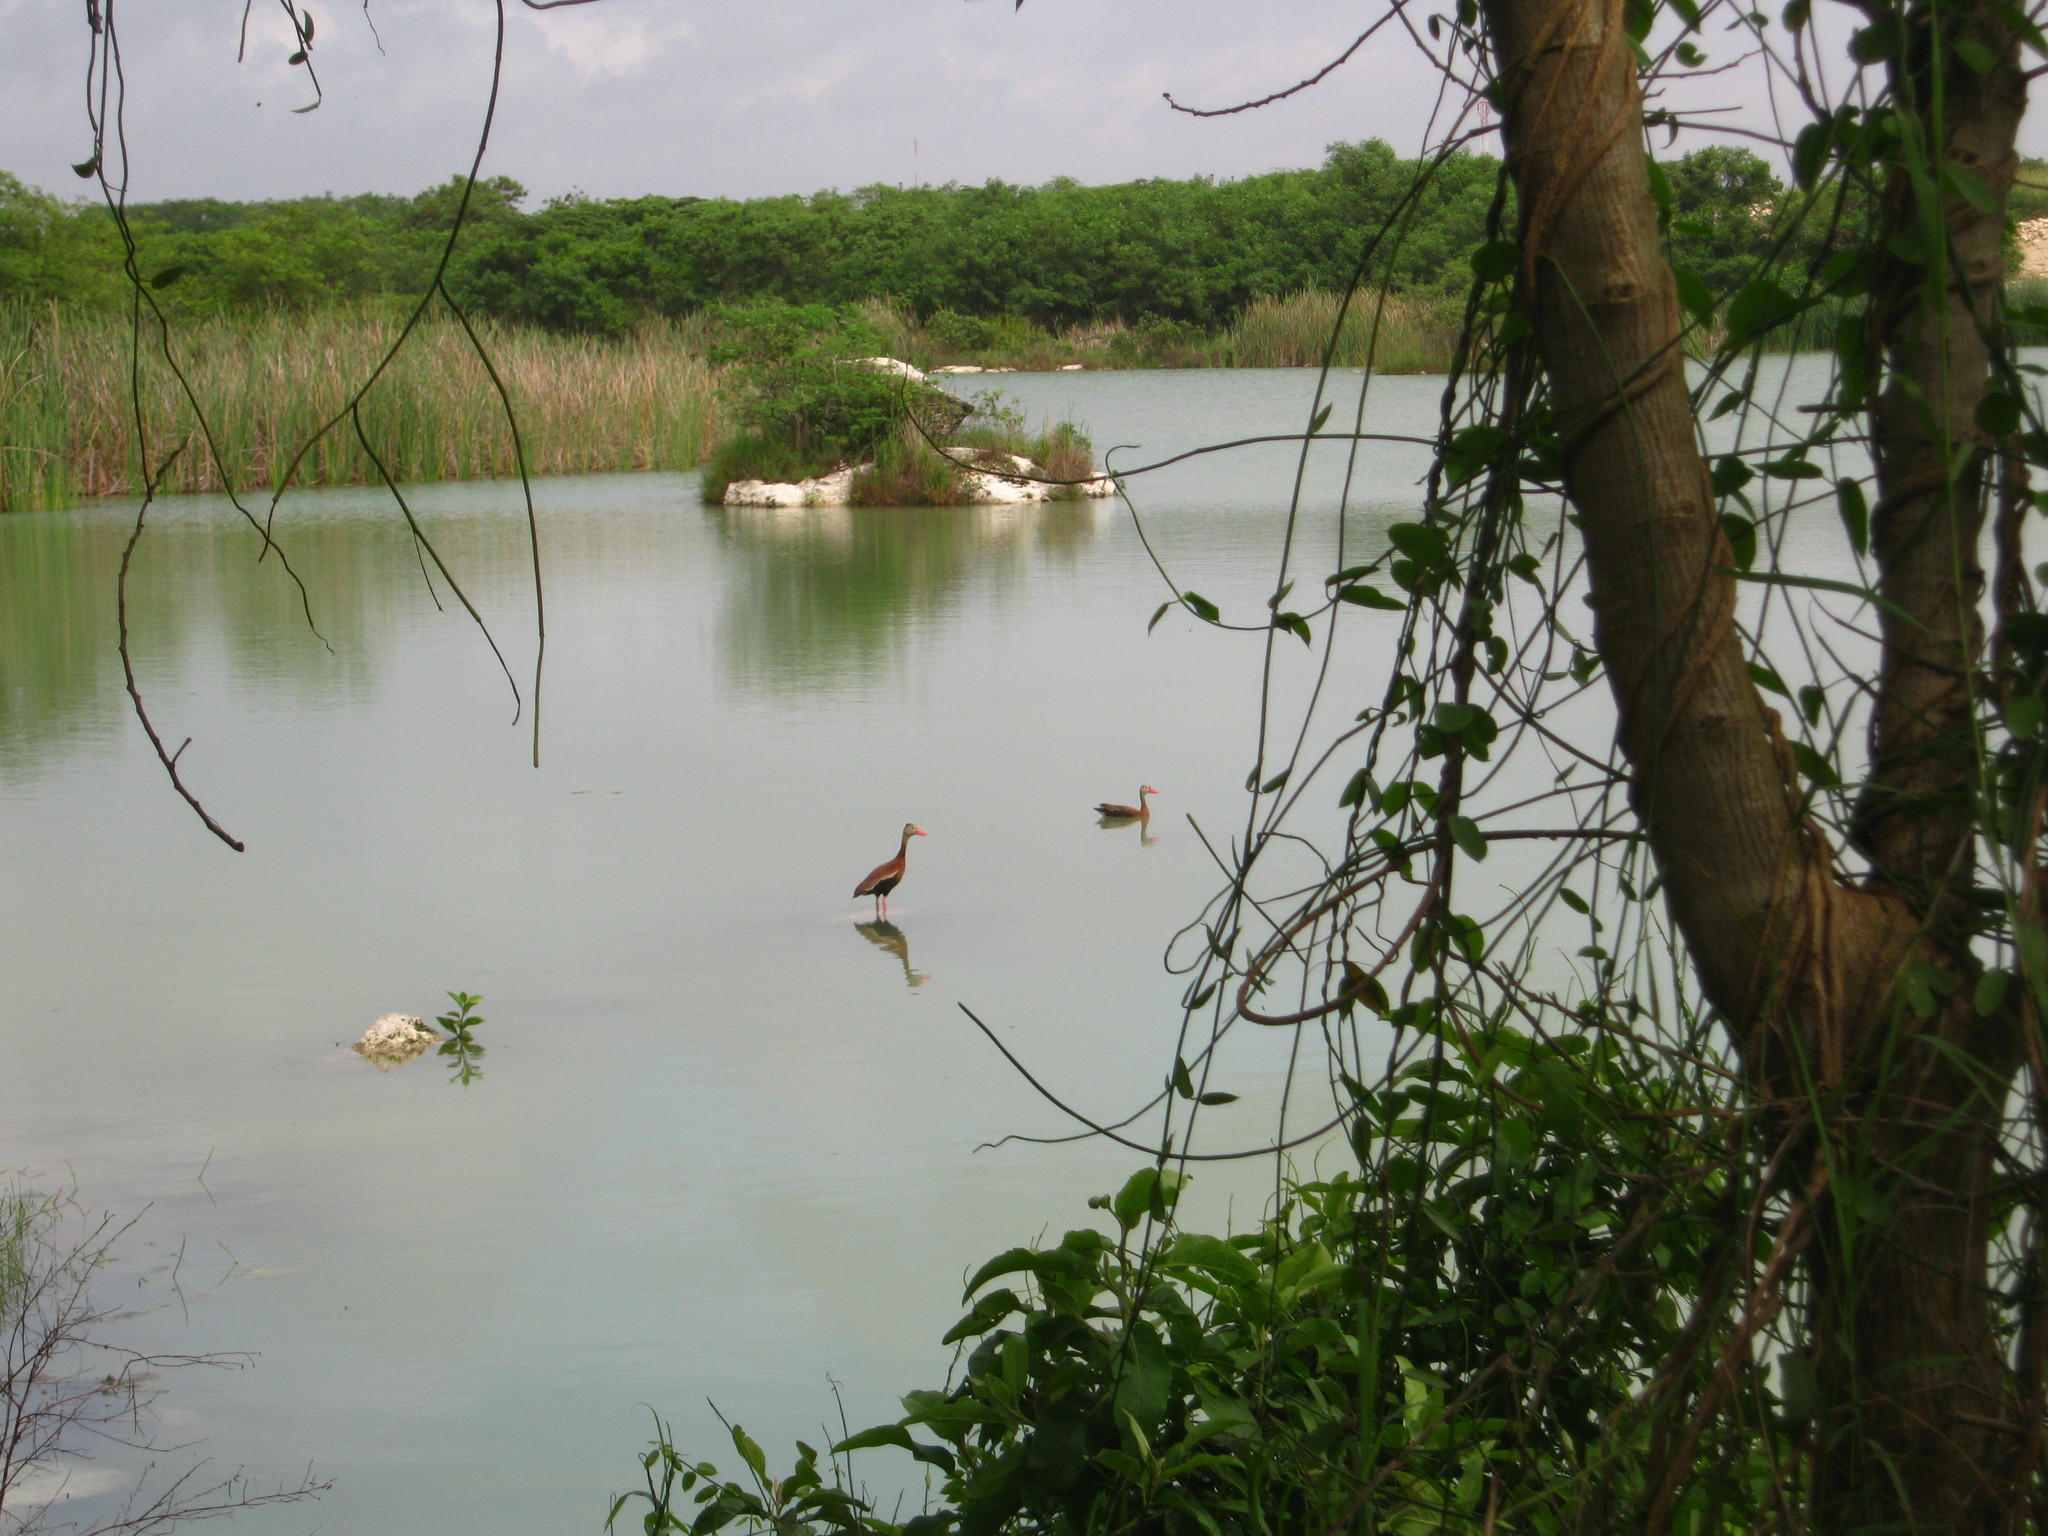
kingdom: Animalia
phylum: Chordata
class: Aves
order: Anseriformes
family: Anatidae
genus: Dendrocygna
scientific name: Dendrocygna autumnalis
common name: Black-bellied whistling duck
